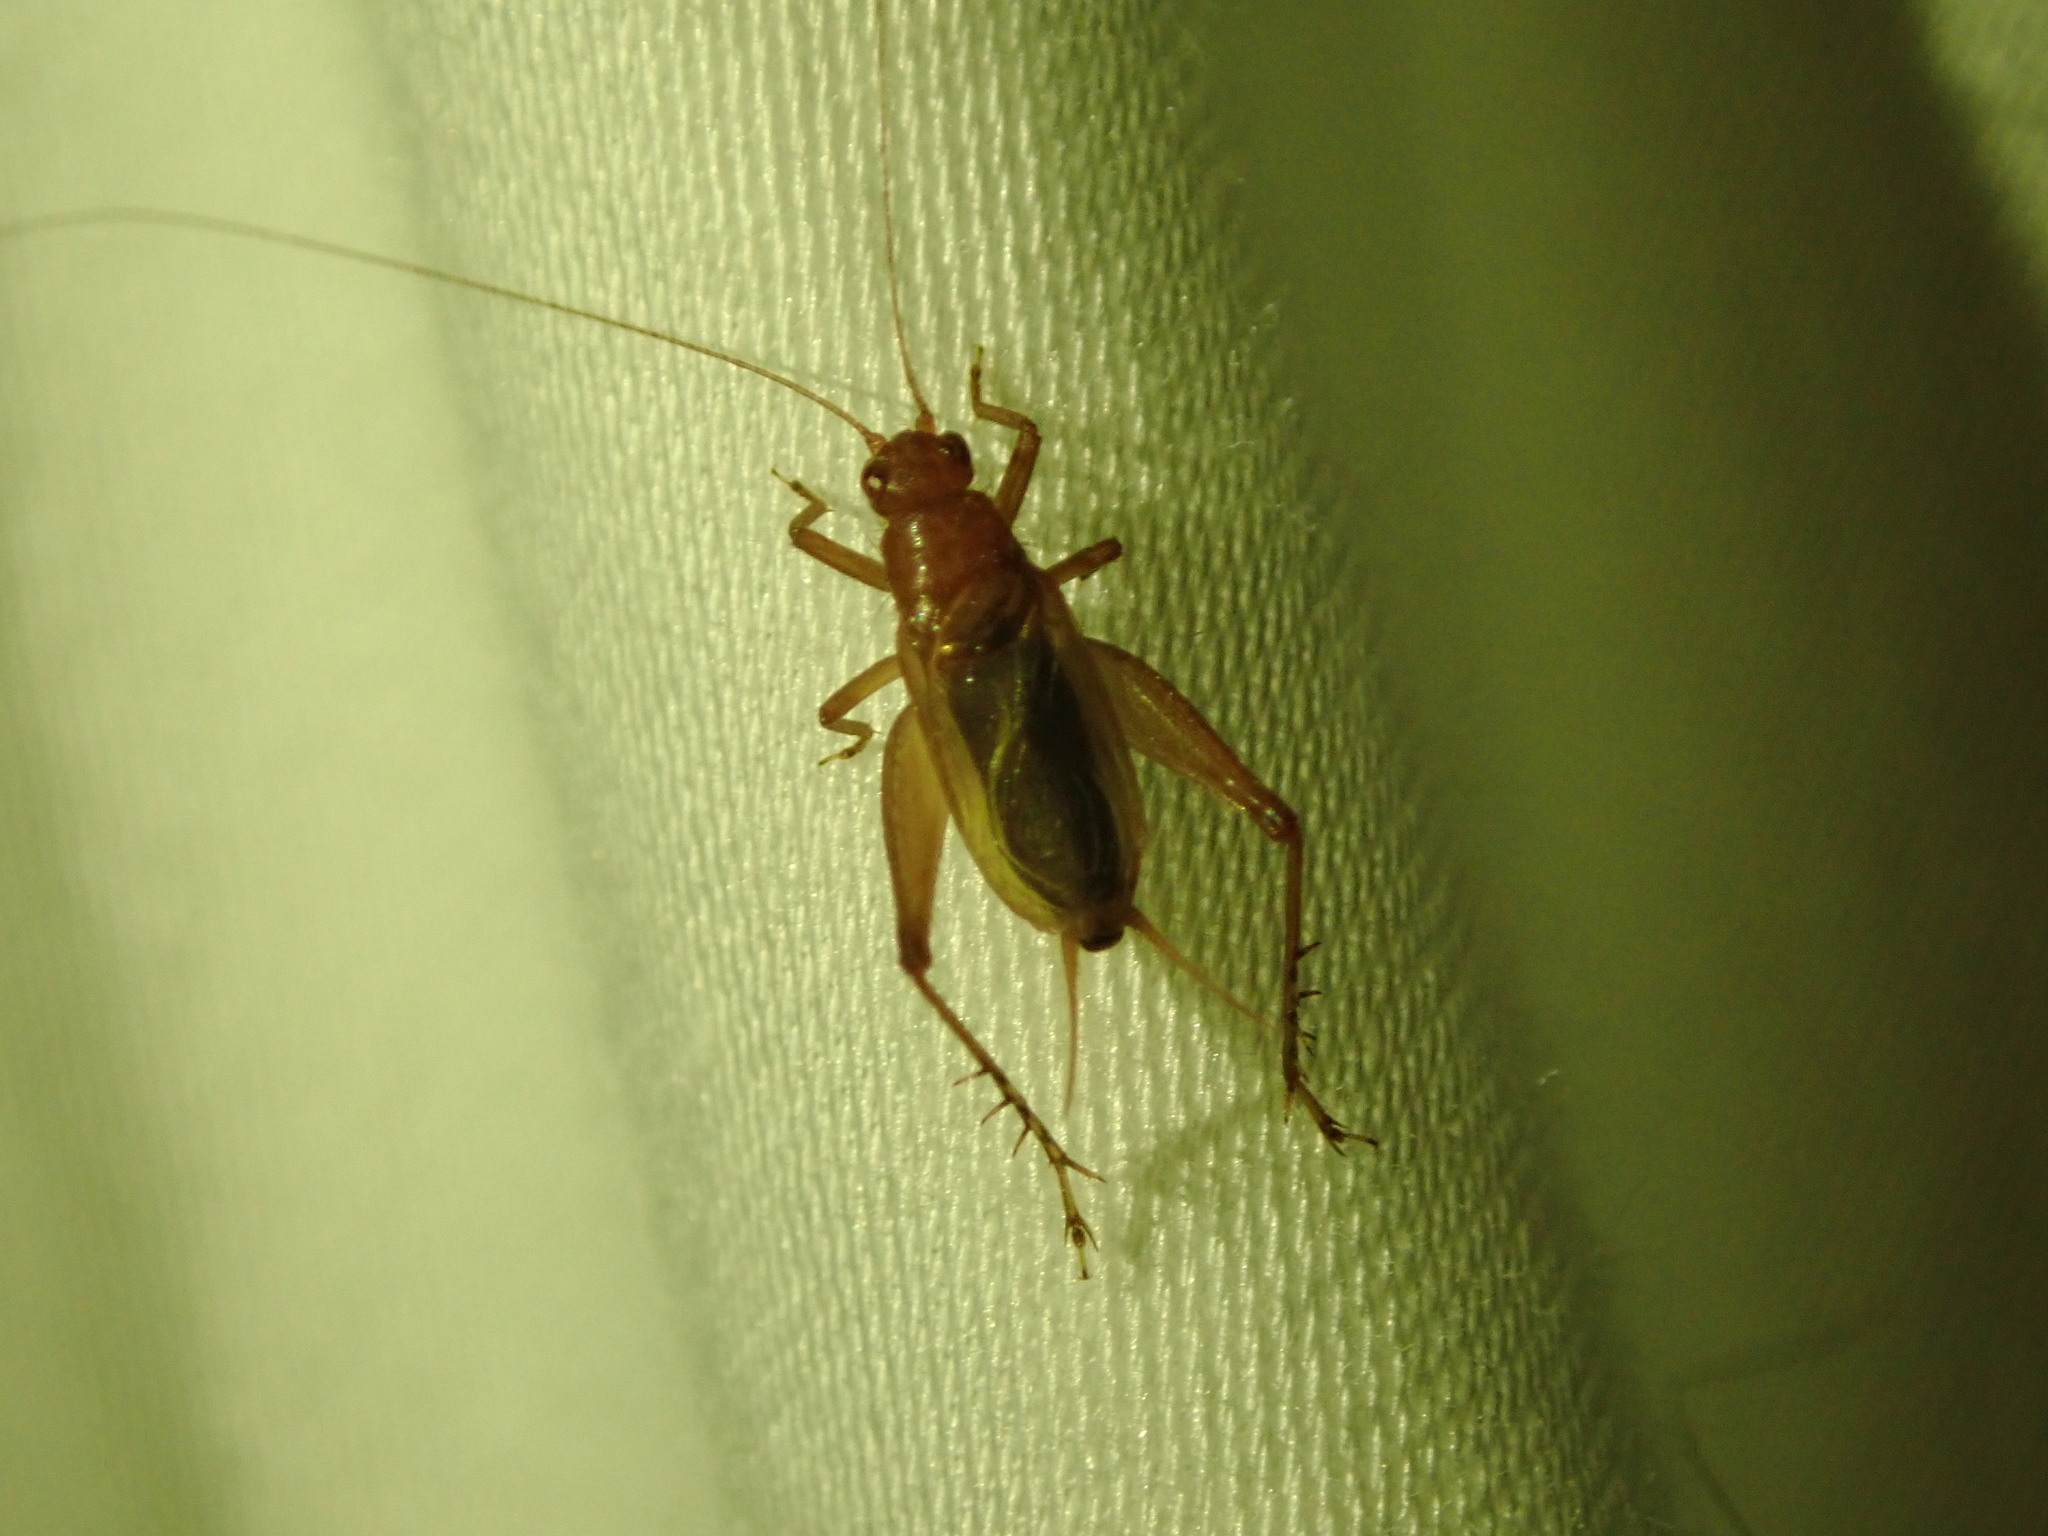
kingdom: Animalia
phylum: Arthropoda
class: Insecta
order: Orthoptera
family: Trigonidiidae
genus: Anaxipha
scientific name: Anaxipha vernalis
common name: Spring trig
